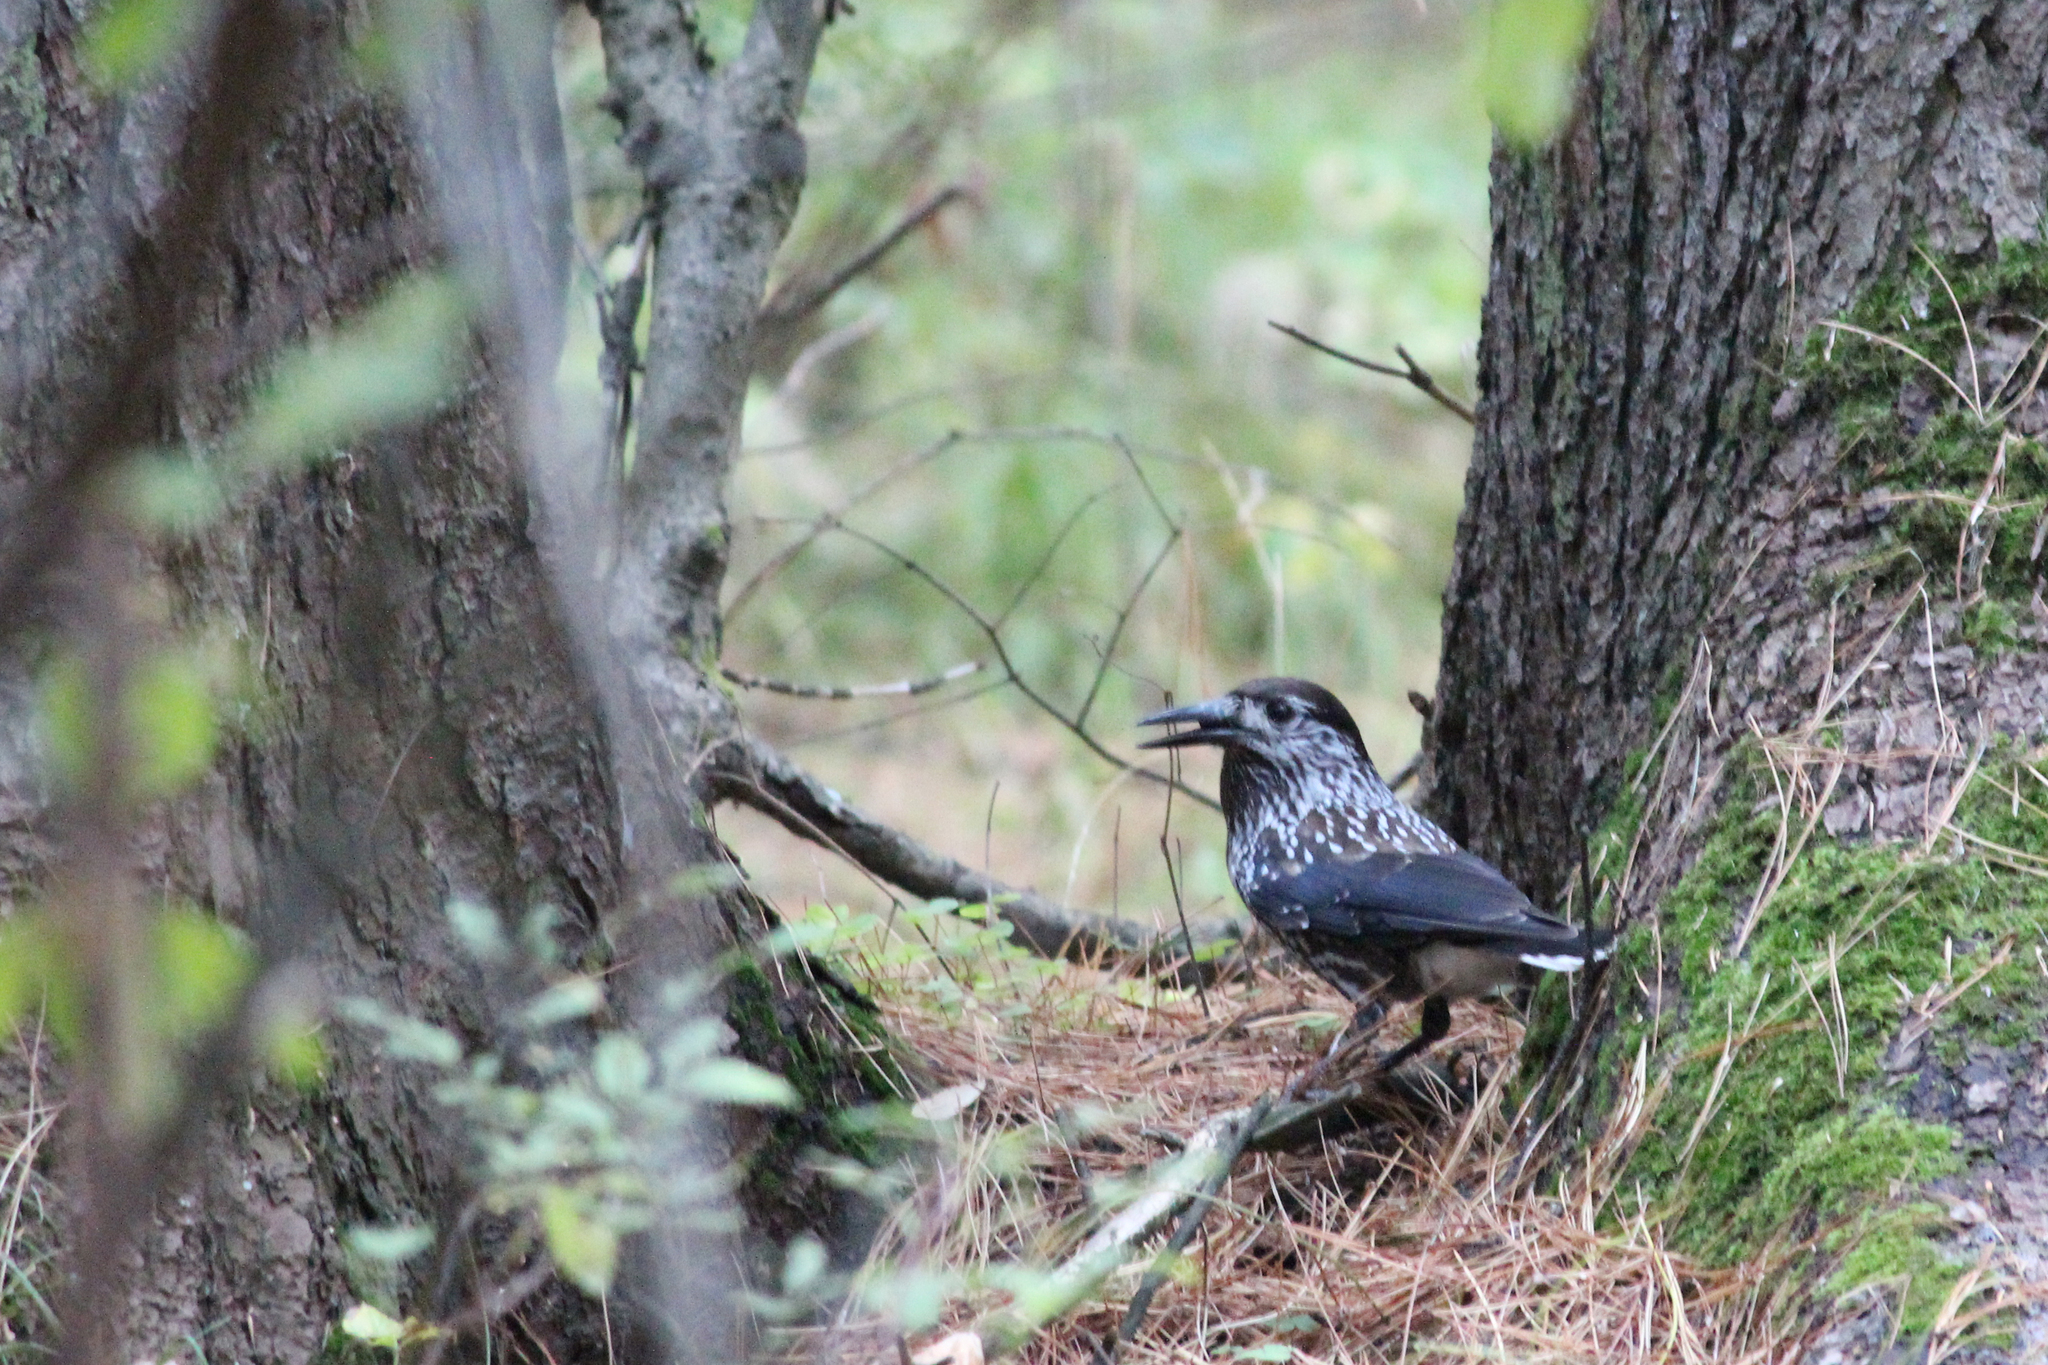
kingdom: Animalia
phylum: Chordata
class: Aves
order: Passeriformes
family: Corvidae
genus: Nucifraga
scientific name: Nucifraga caryocatactes
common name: Spotted nutcracker
